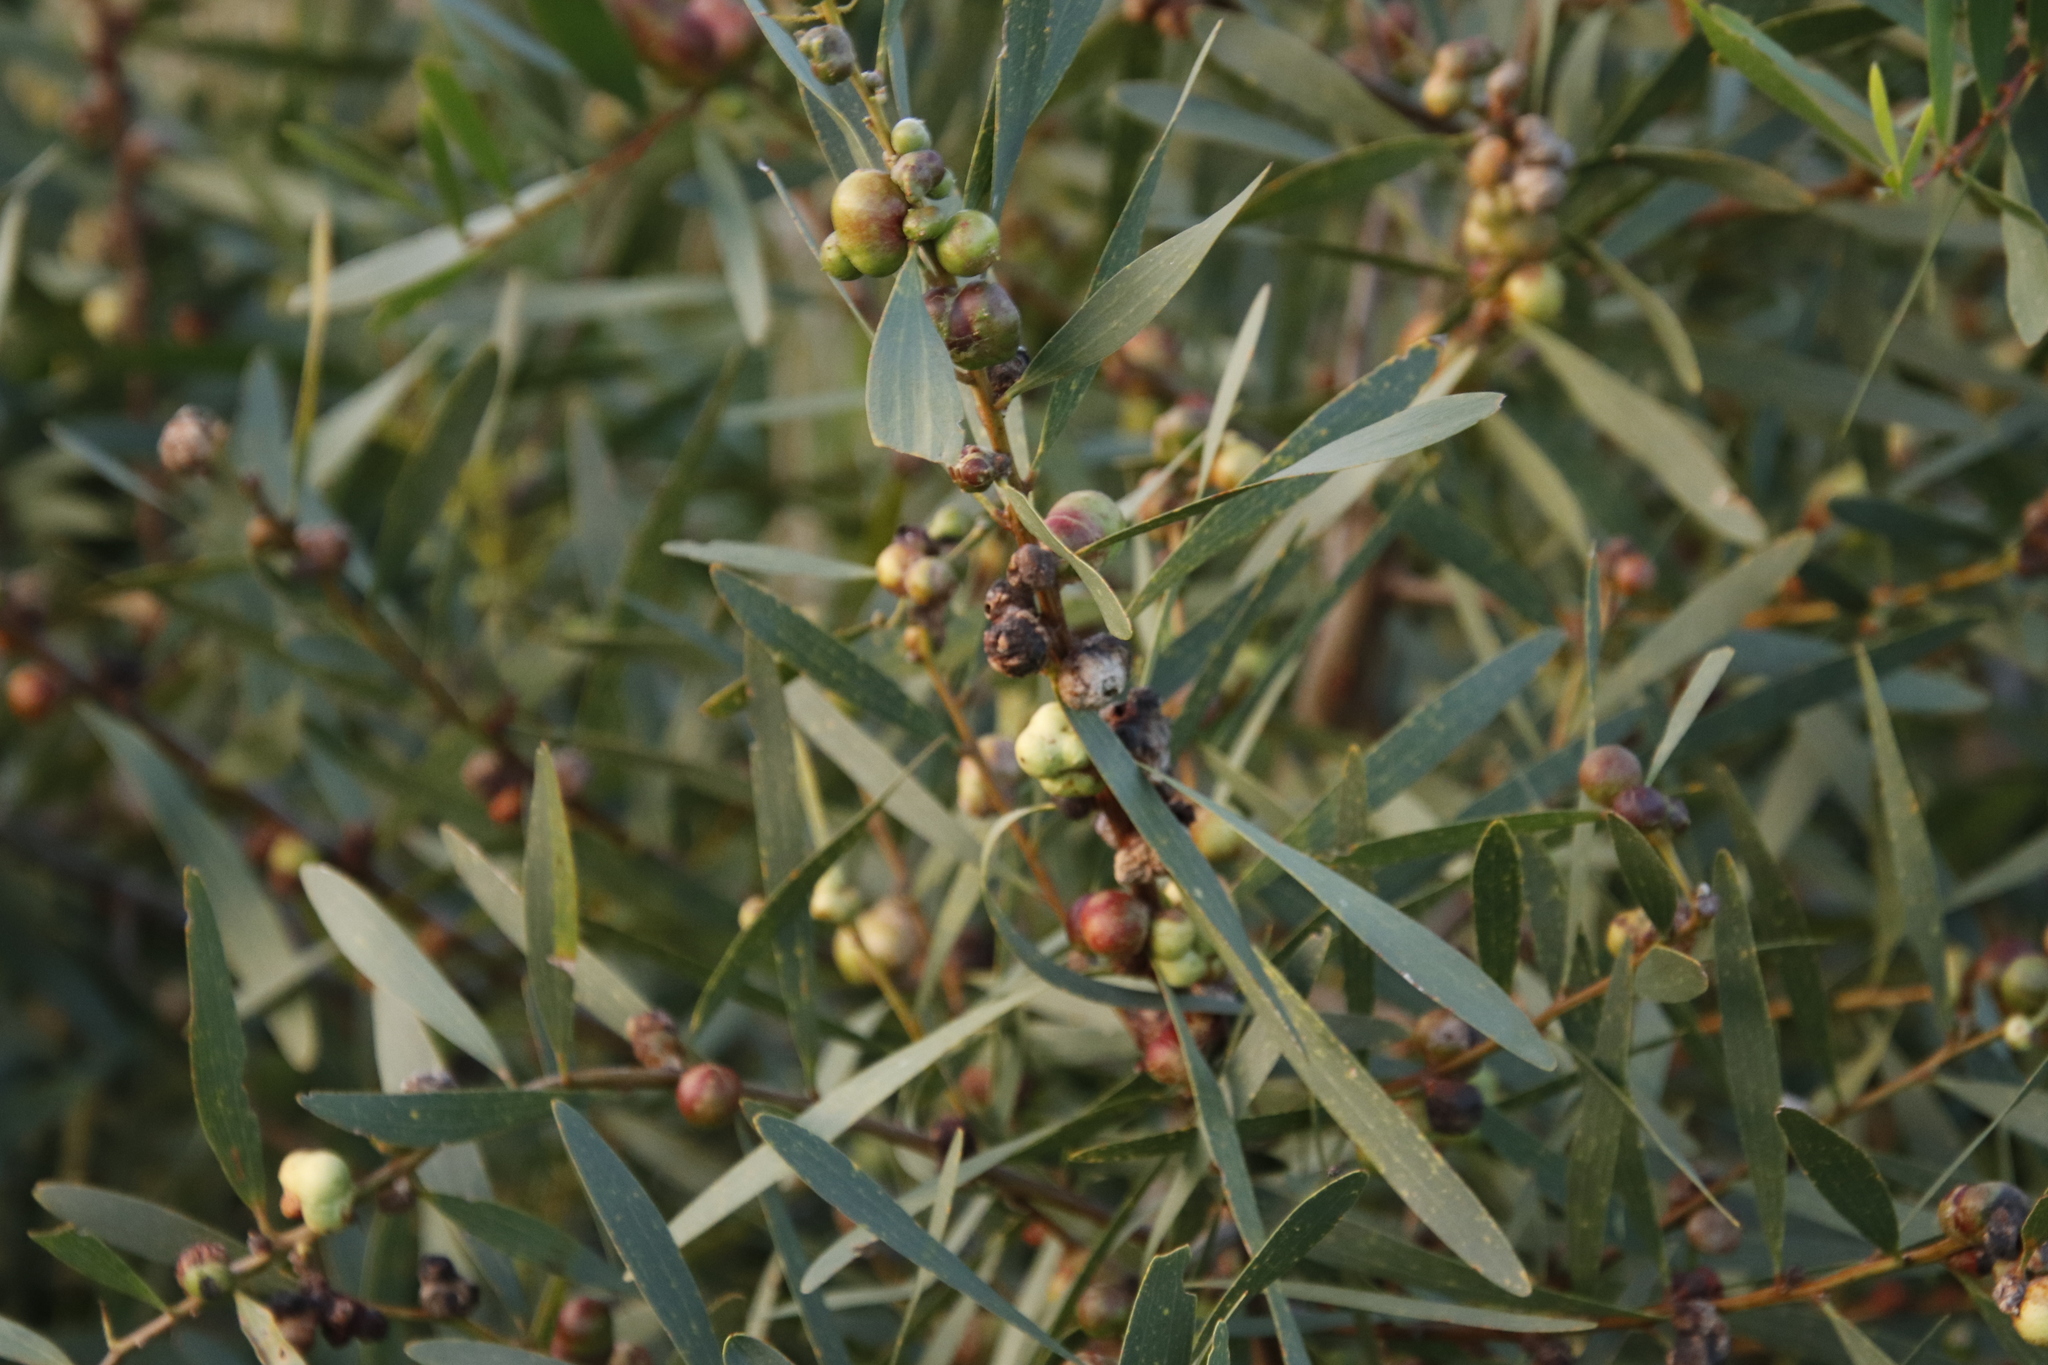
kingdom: Plantae
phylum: Tracheophyta
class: Magnoliopsida
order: Fabales
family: Fabaceae
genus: Acacia
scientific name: Acacia longifolia
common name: Sydney golden wattle
